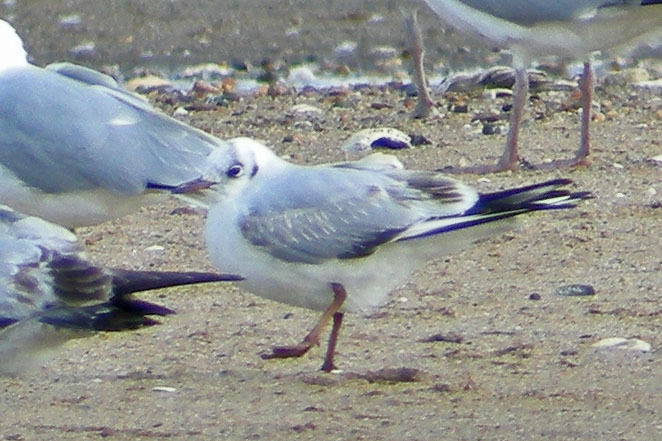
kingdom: Animalia
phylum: Chordata
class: Aves
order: Charadriiformes
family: Laridae
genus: Chroicocephalus
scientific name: Chroicocephalus ridibundus
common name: Black-headed gull
